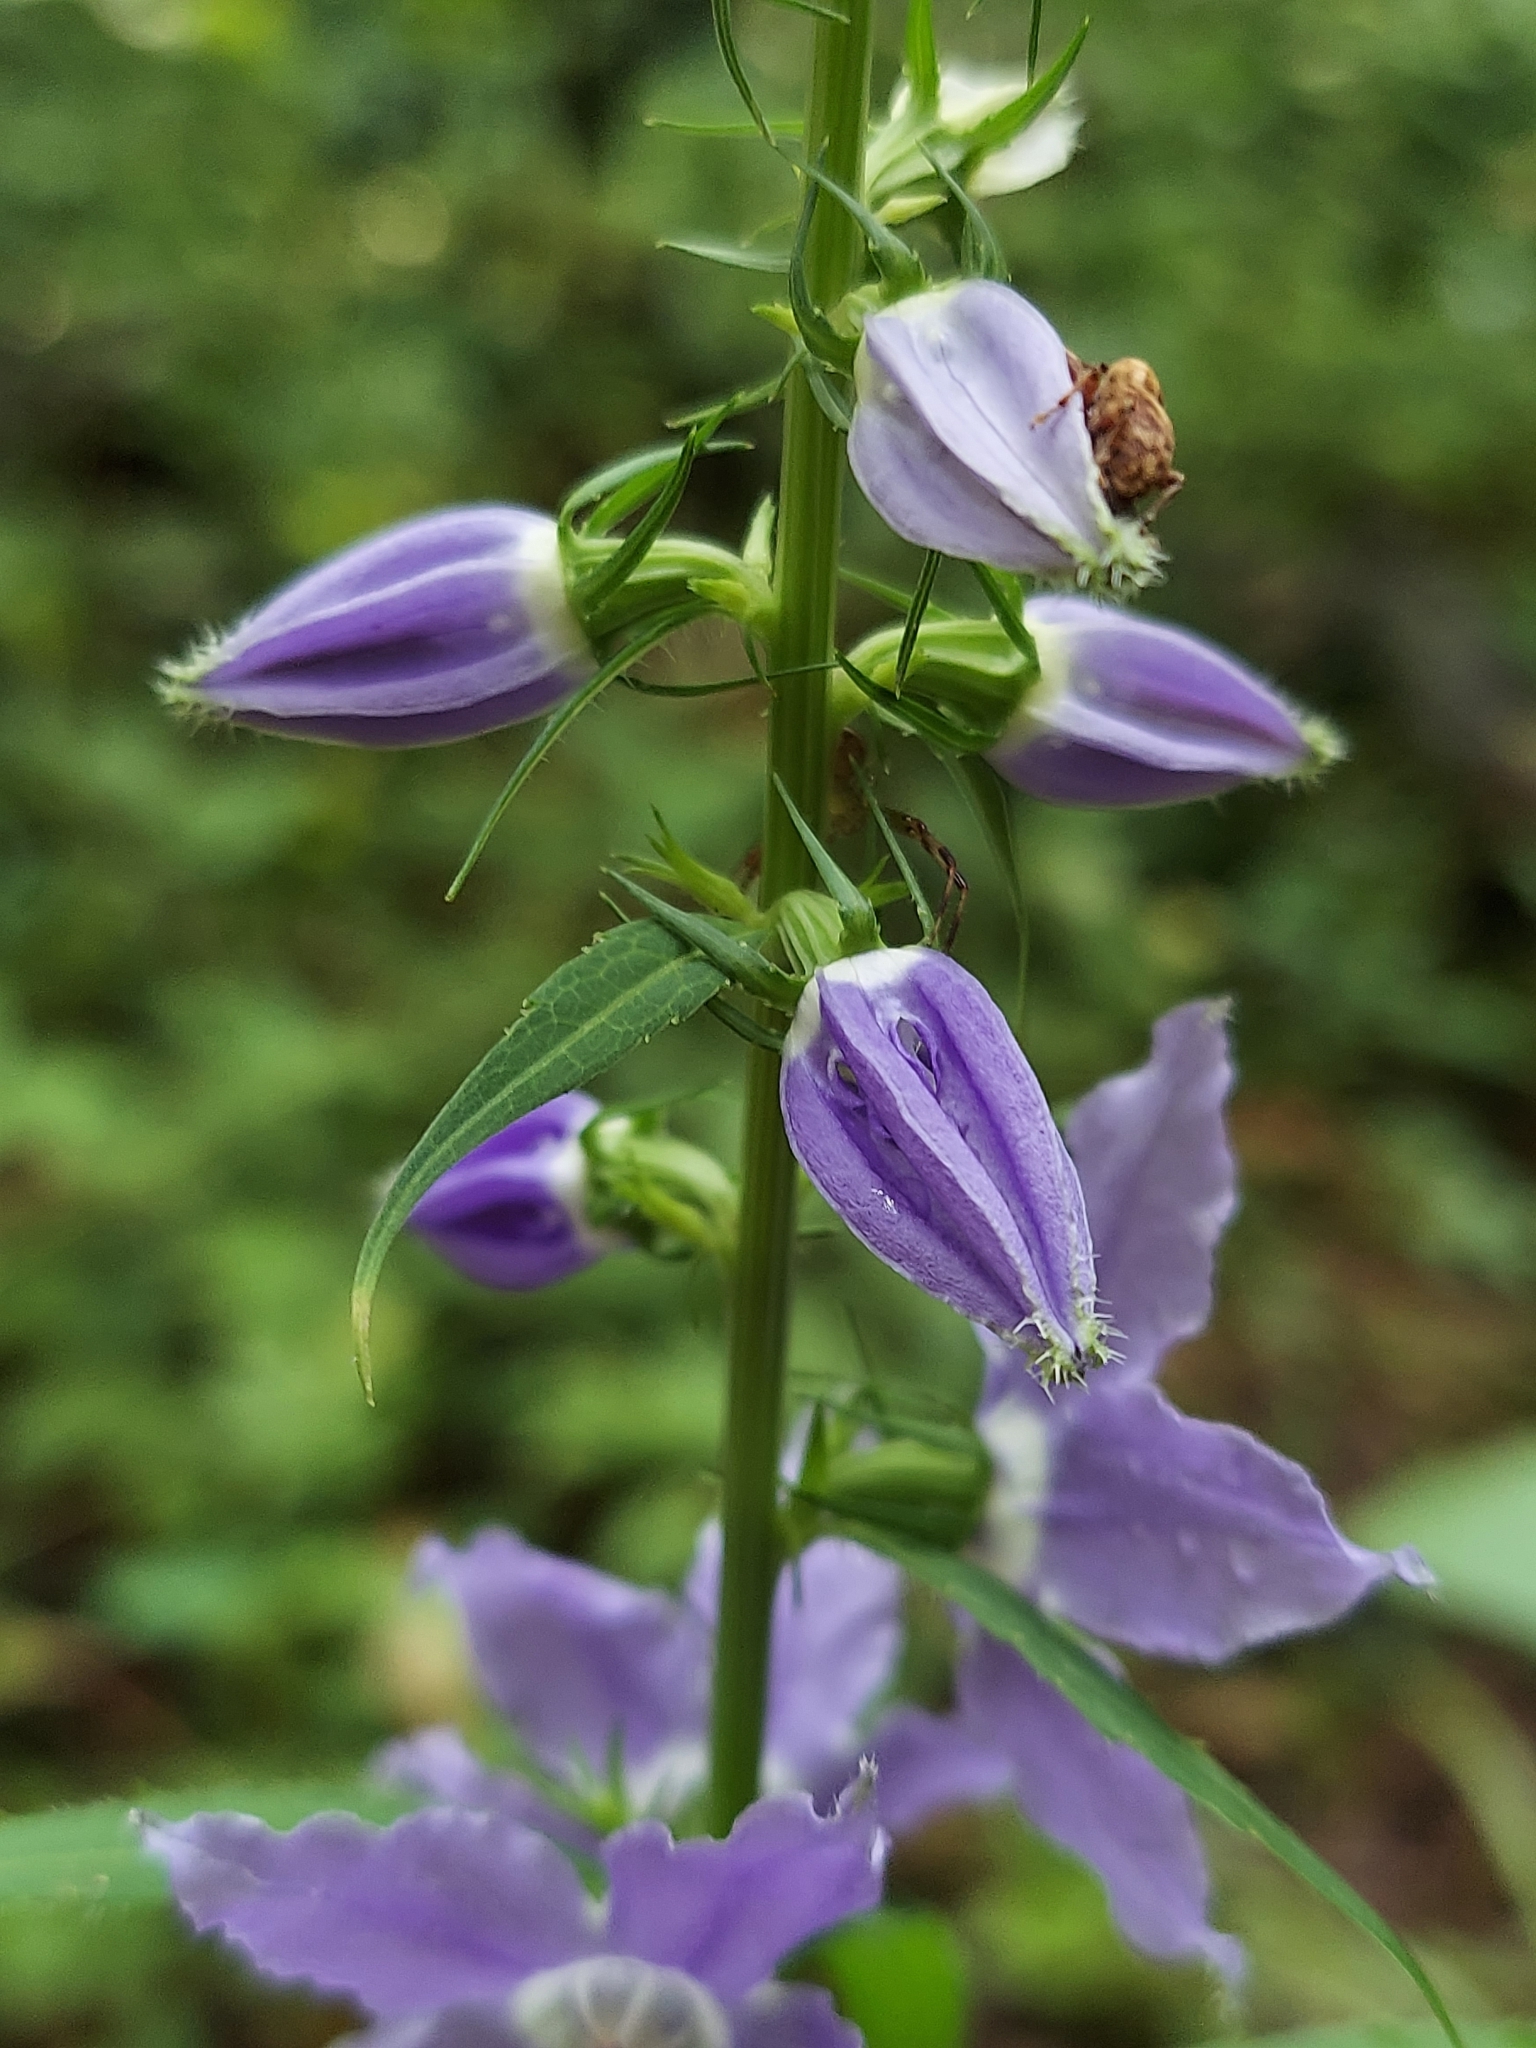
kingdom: Plantae
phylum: Tracheophyta
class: Magnoliopsida
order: Asterales
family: Campanulaceae
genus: Campanulastrum
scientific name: Campanulastrum americanum
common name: American bellflower
